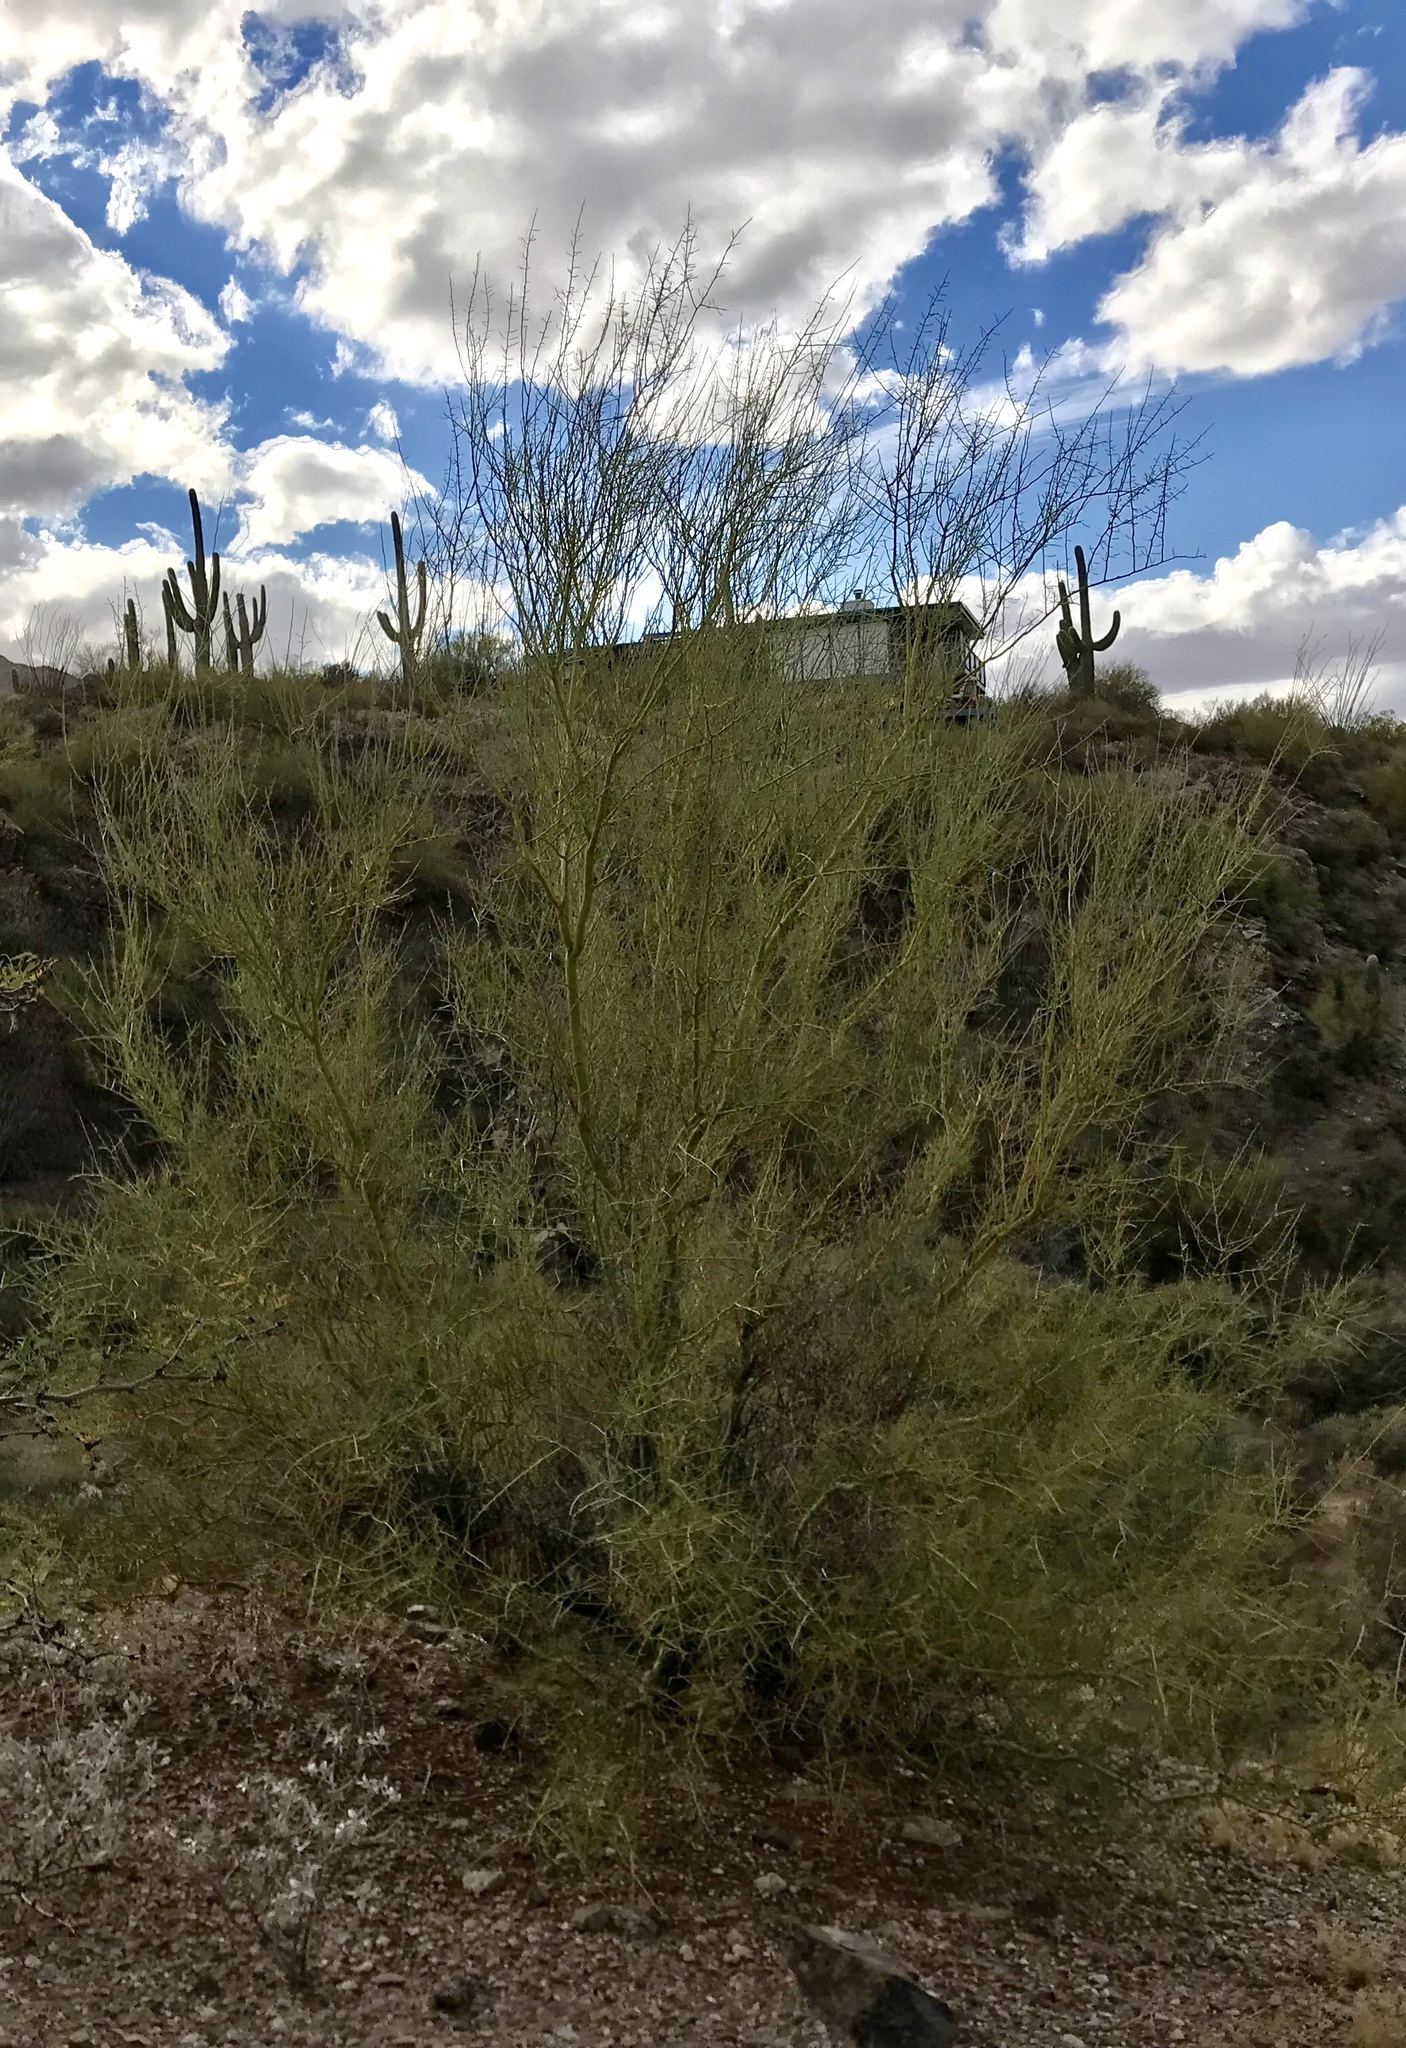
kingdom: Plantae
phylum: Tracheophyta
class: Magnoliopsida
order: Fabales
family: Fabaceae
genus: Parkinsonia
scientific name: Parkinsonia microphylla
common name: Yellow paloverde
